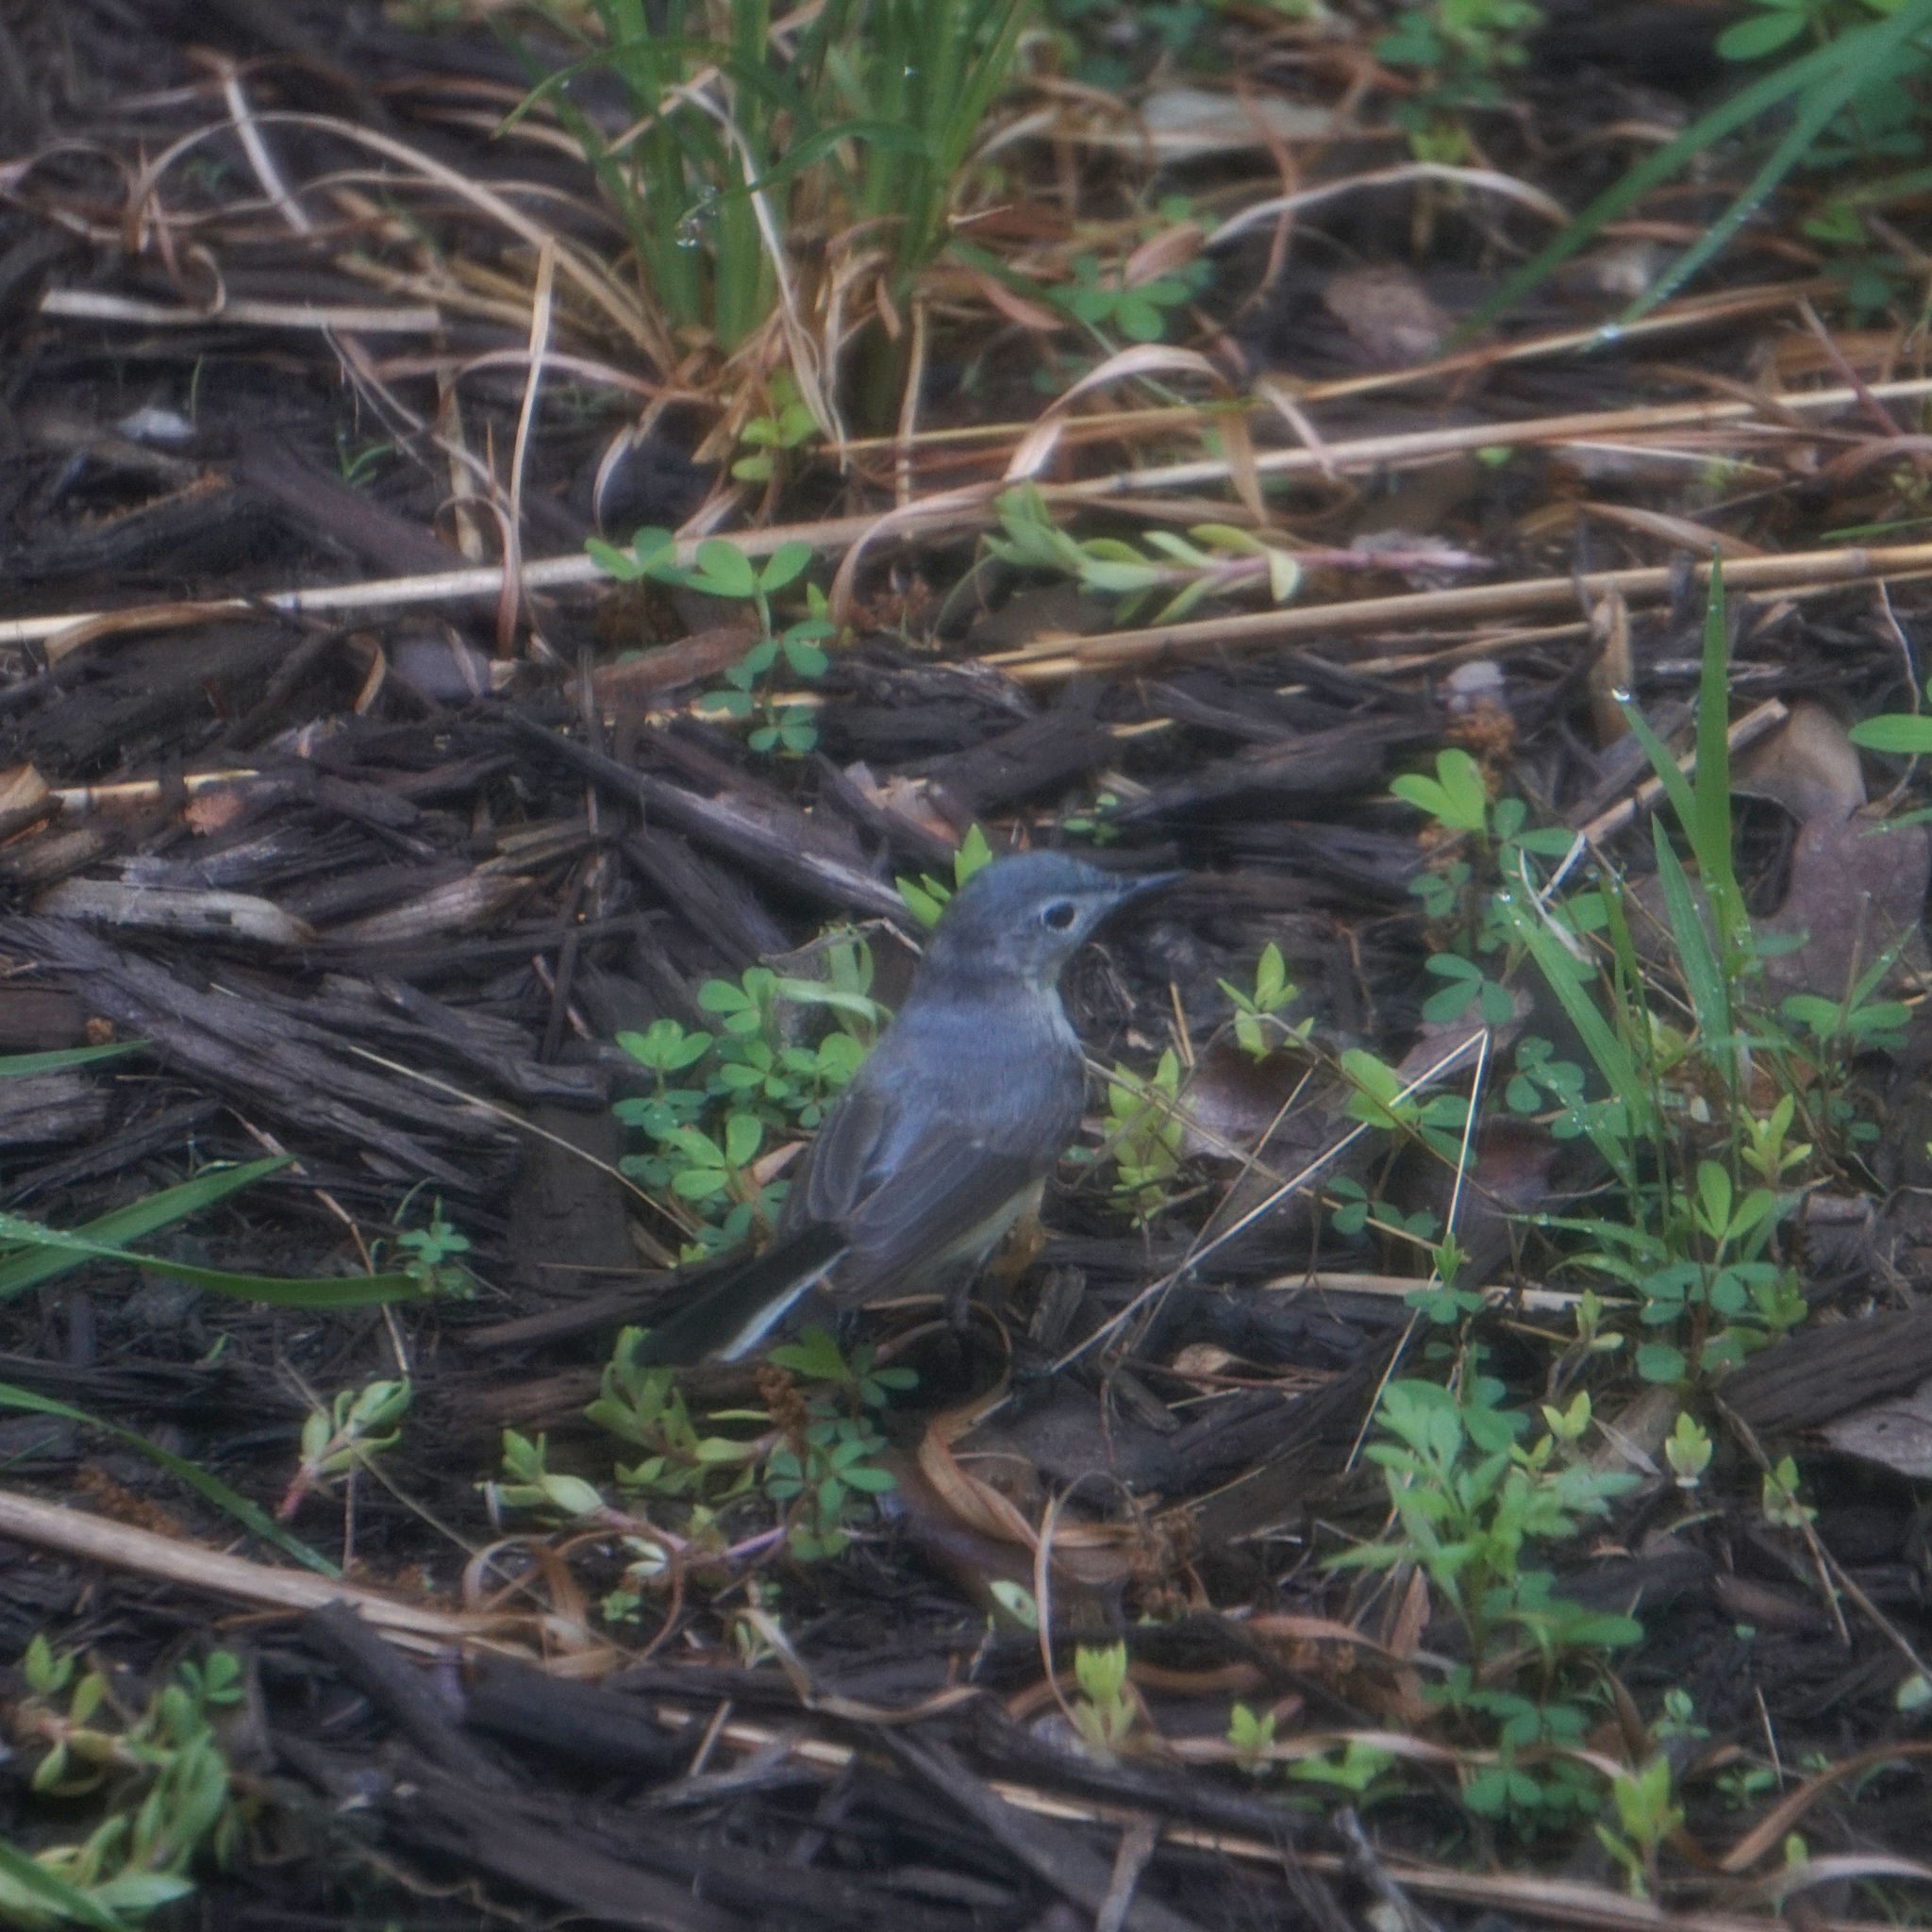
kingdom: Animalia
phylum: Chordata
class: Aves
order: Passeriformes
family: Polioptilidae
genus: Polioptila
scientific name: Polioptila caerulea
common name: Blue-gray gnatcatcher
